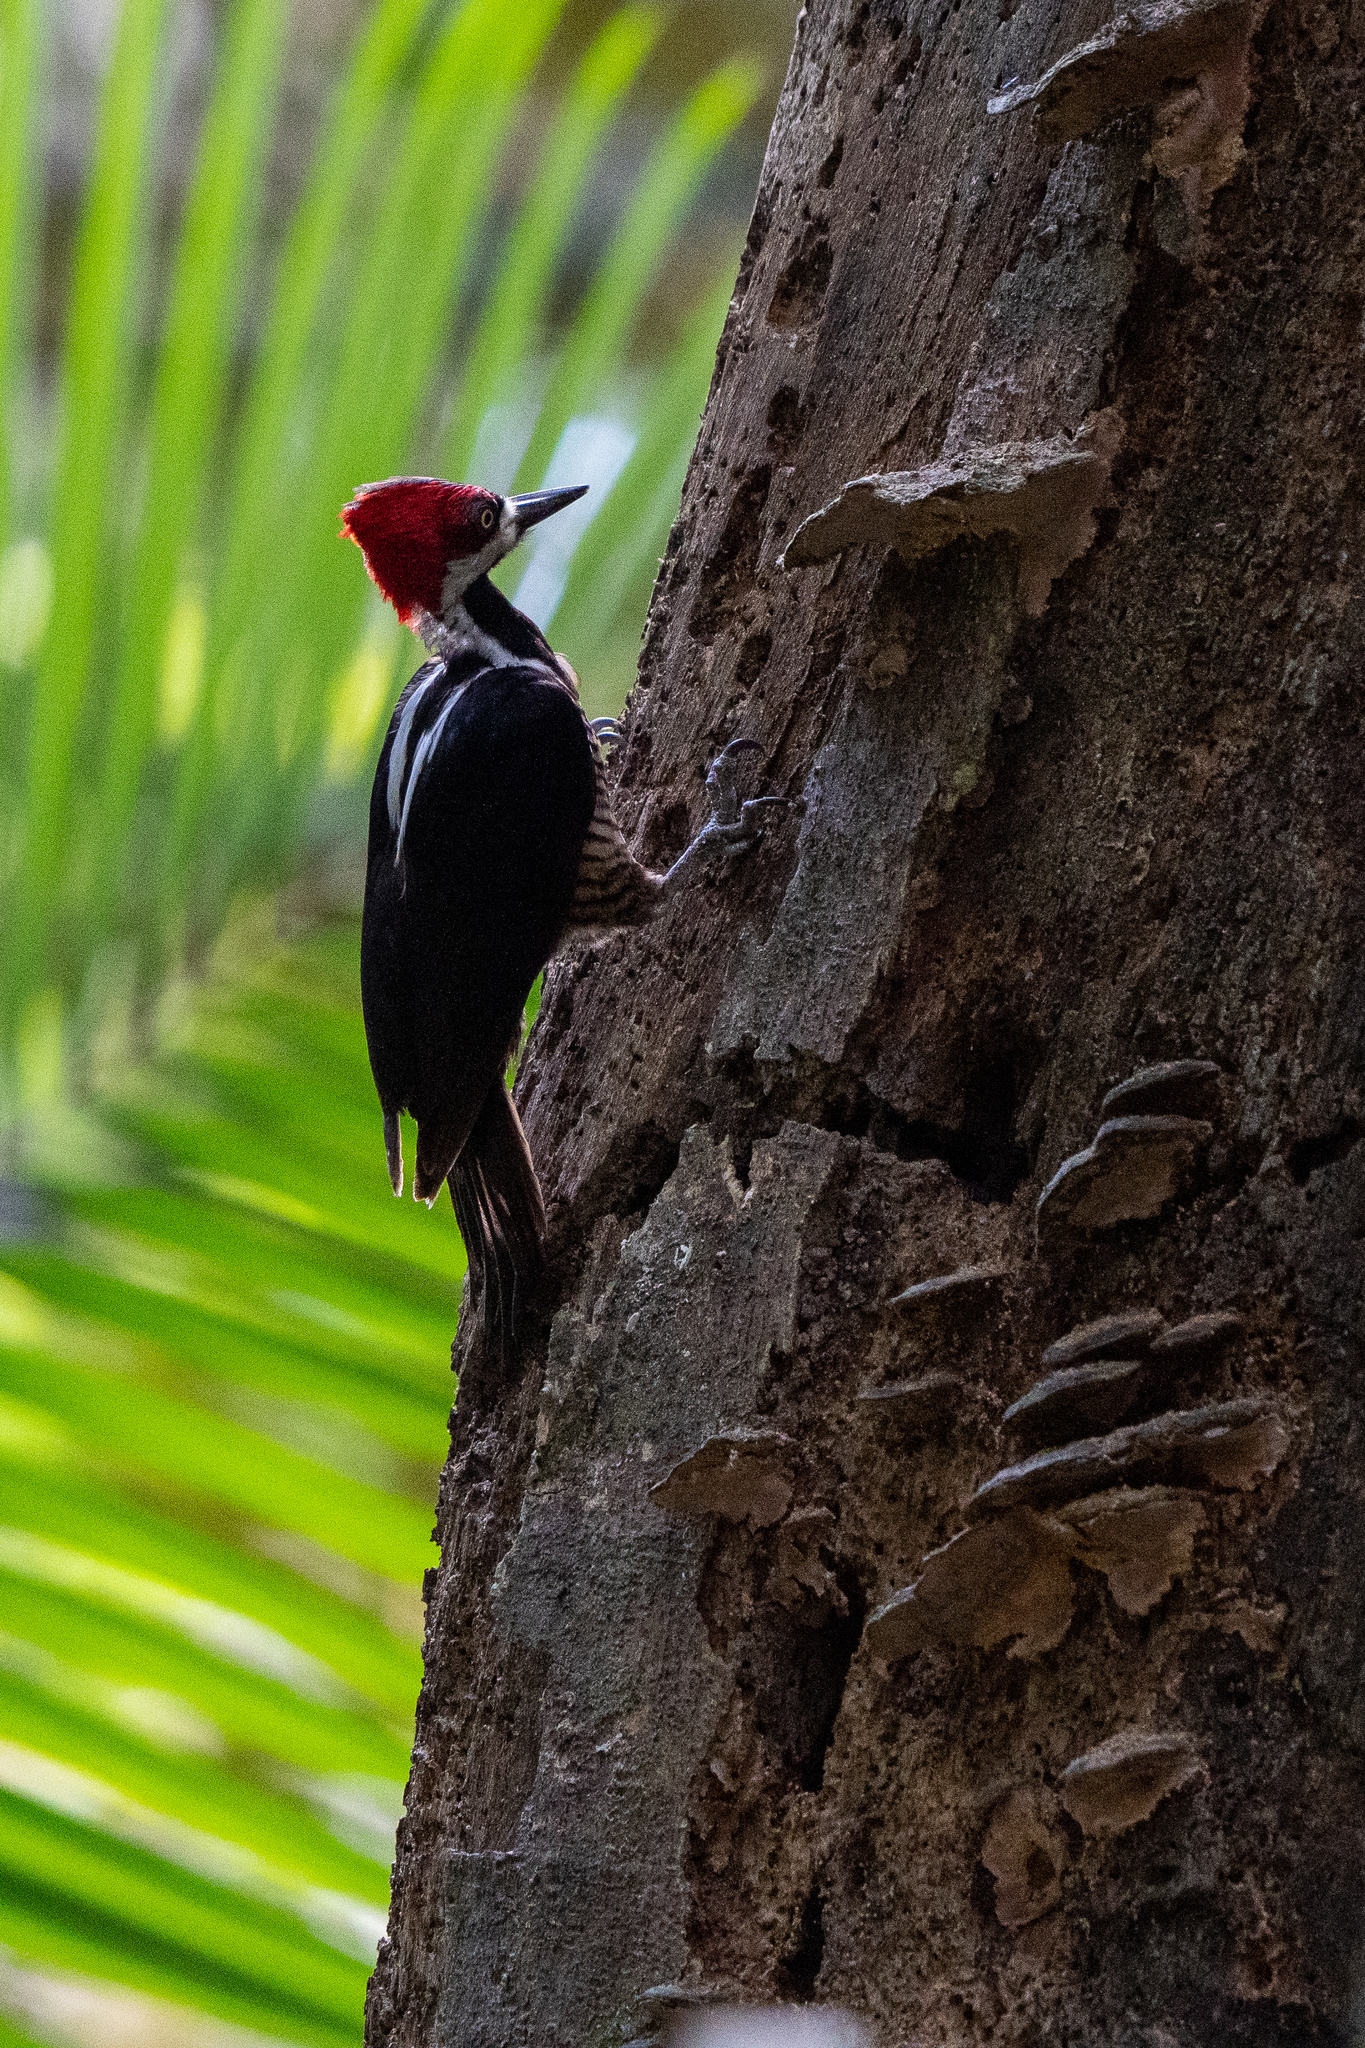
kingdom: Animalia
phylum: Chordata
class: Aves
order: Piciformes
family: Picidae
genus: Campephilus
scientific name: Campephilus melanoleucos
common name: Crimson-crested woodpecker
